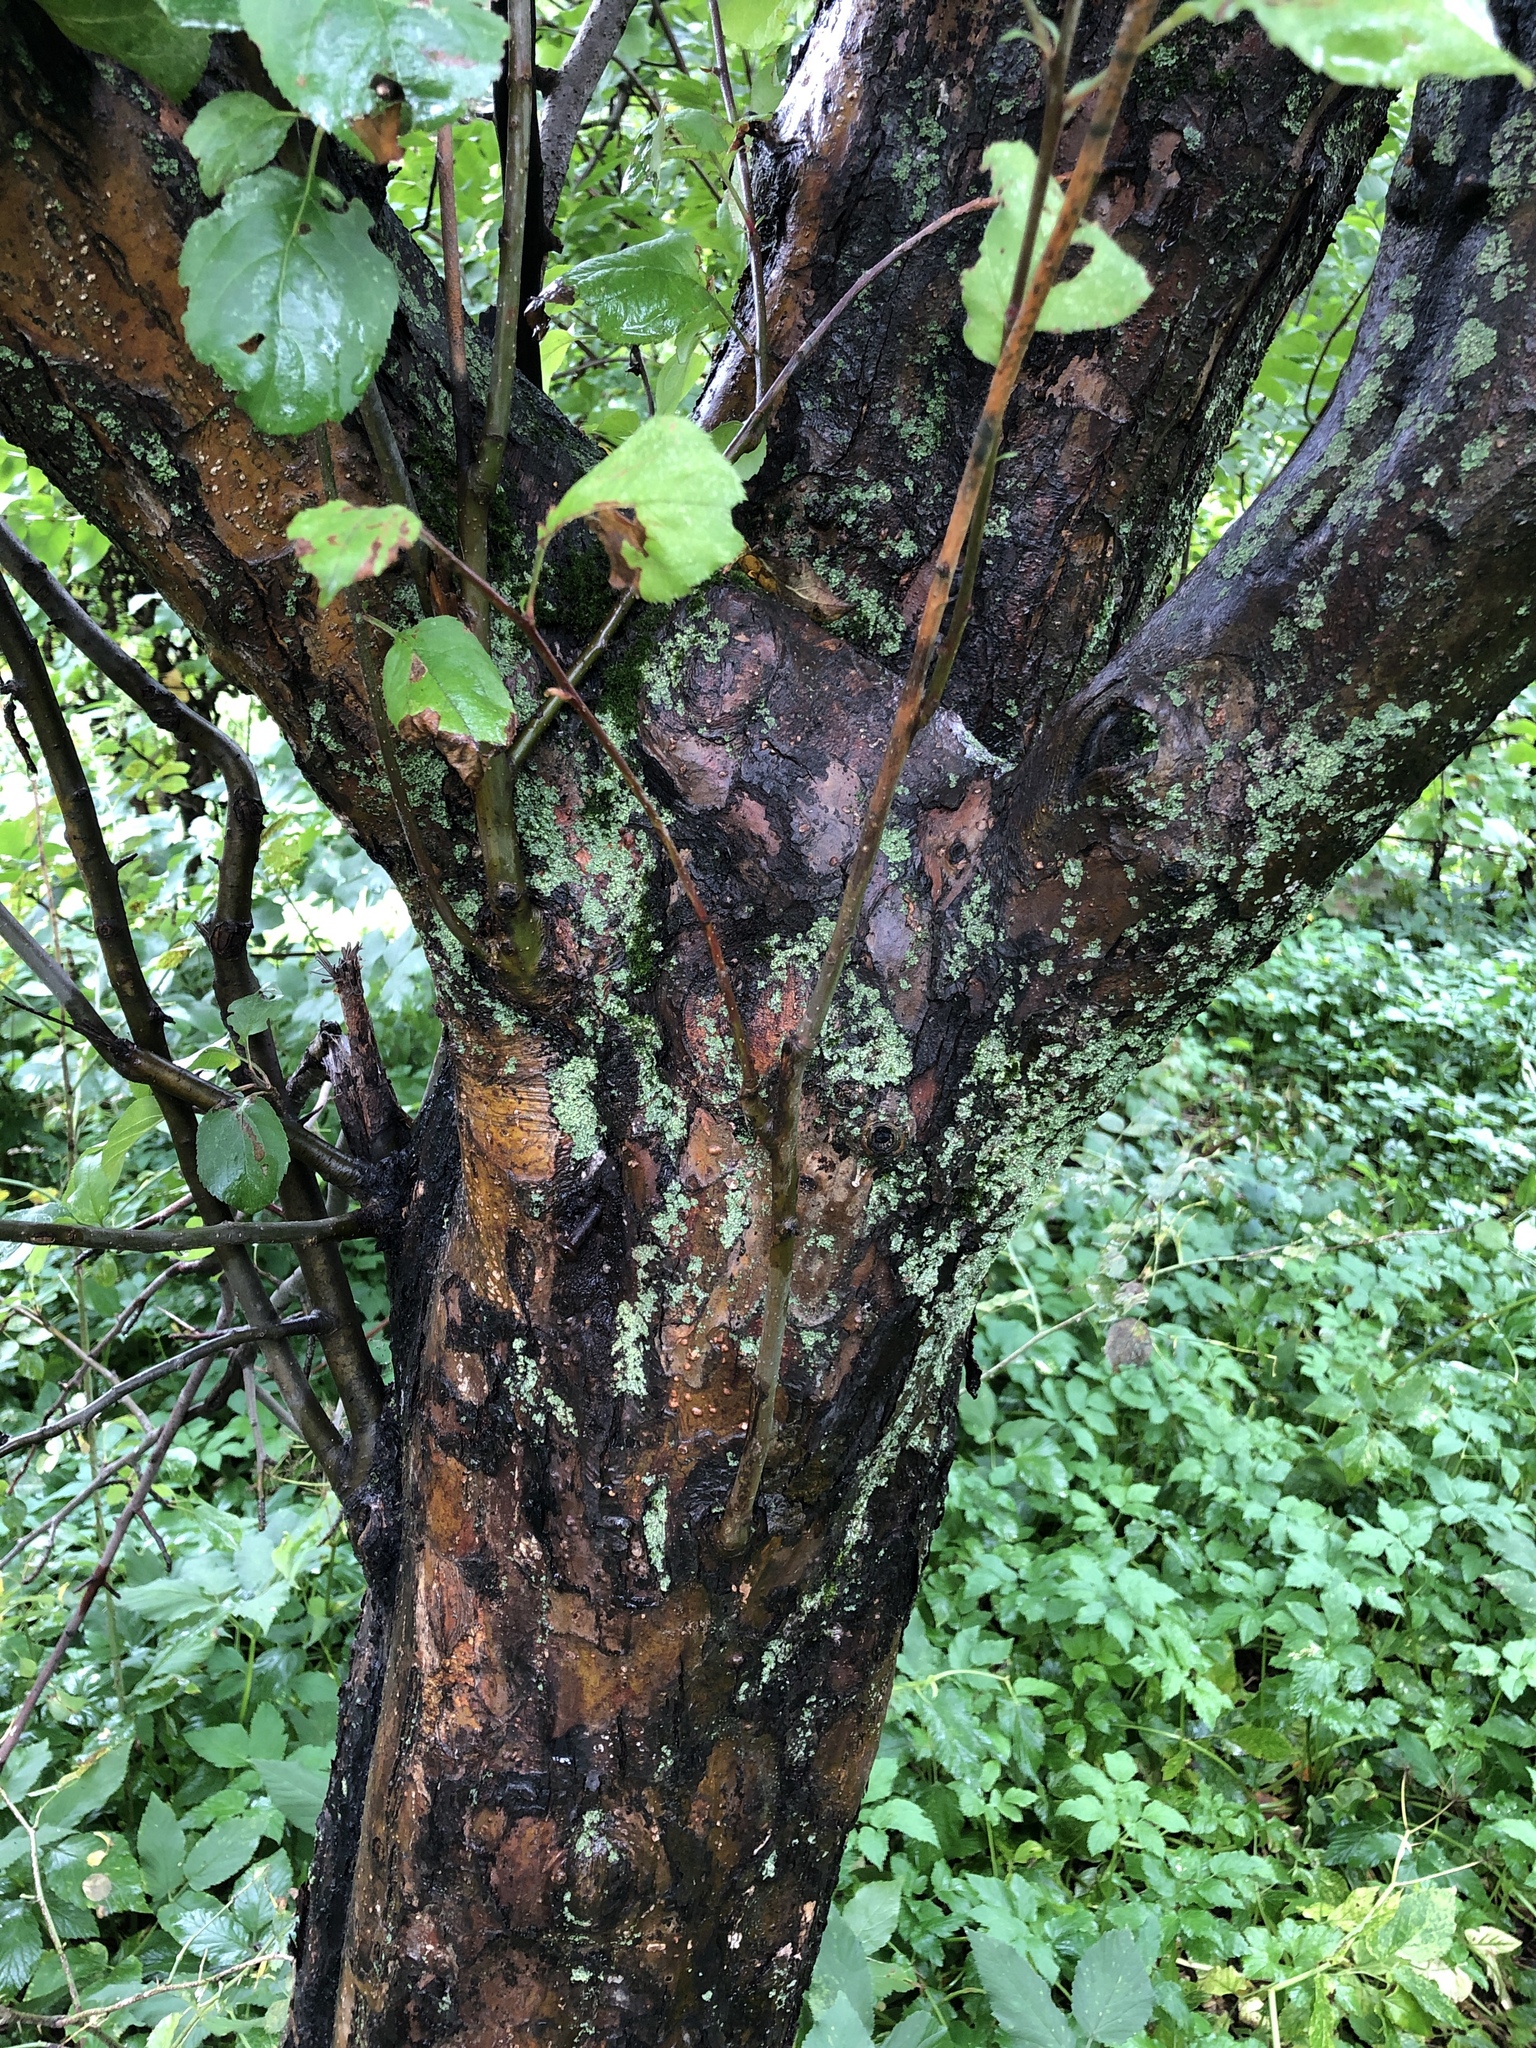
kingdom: Plantae
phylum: Tracheophyta
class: Magnoliopsida
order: Rosales
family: Rosaceae
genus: Malus
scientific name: Malus domestica
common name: Apple
